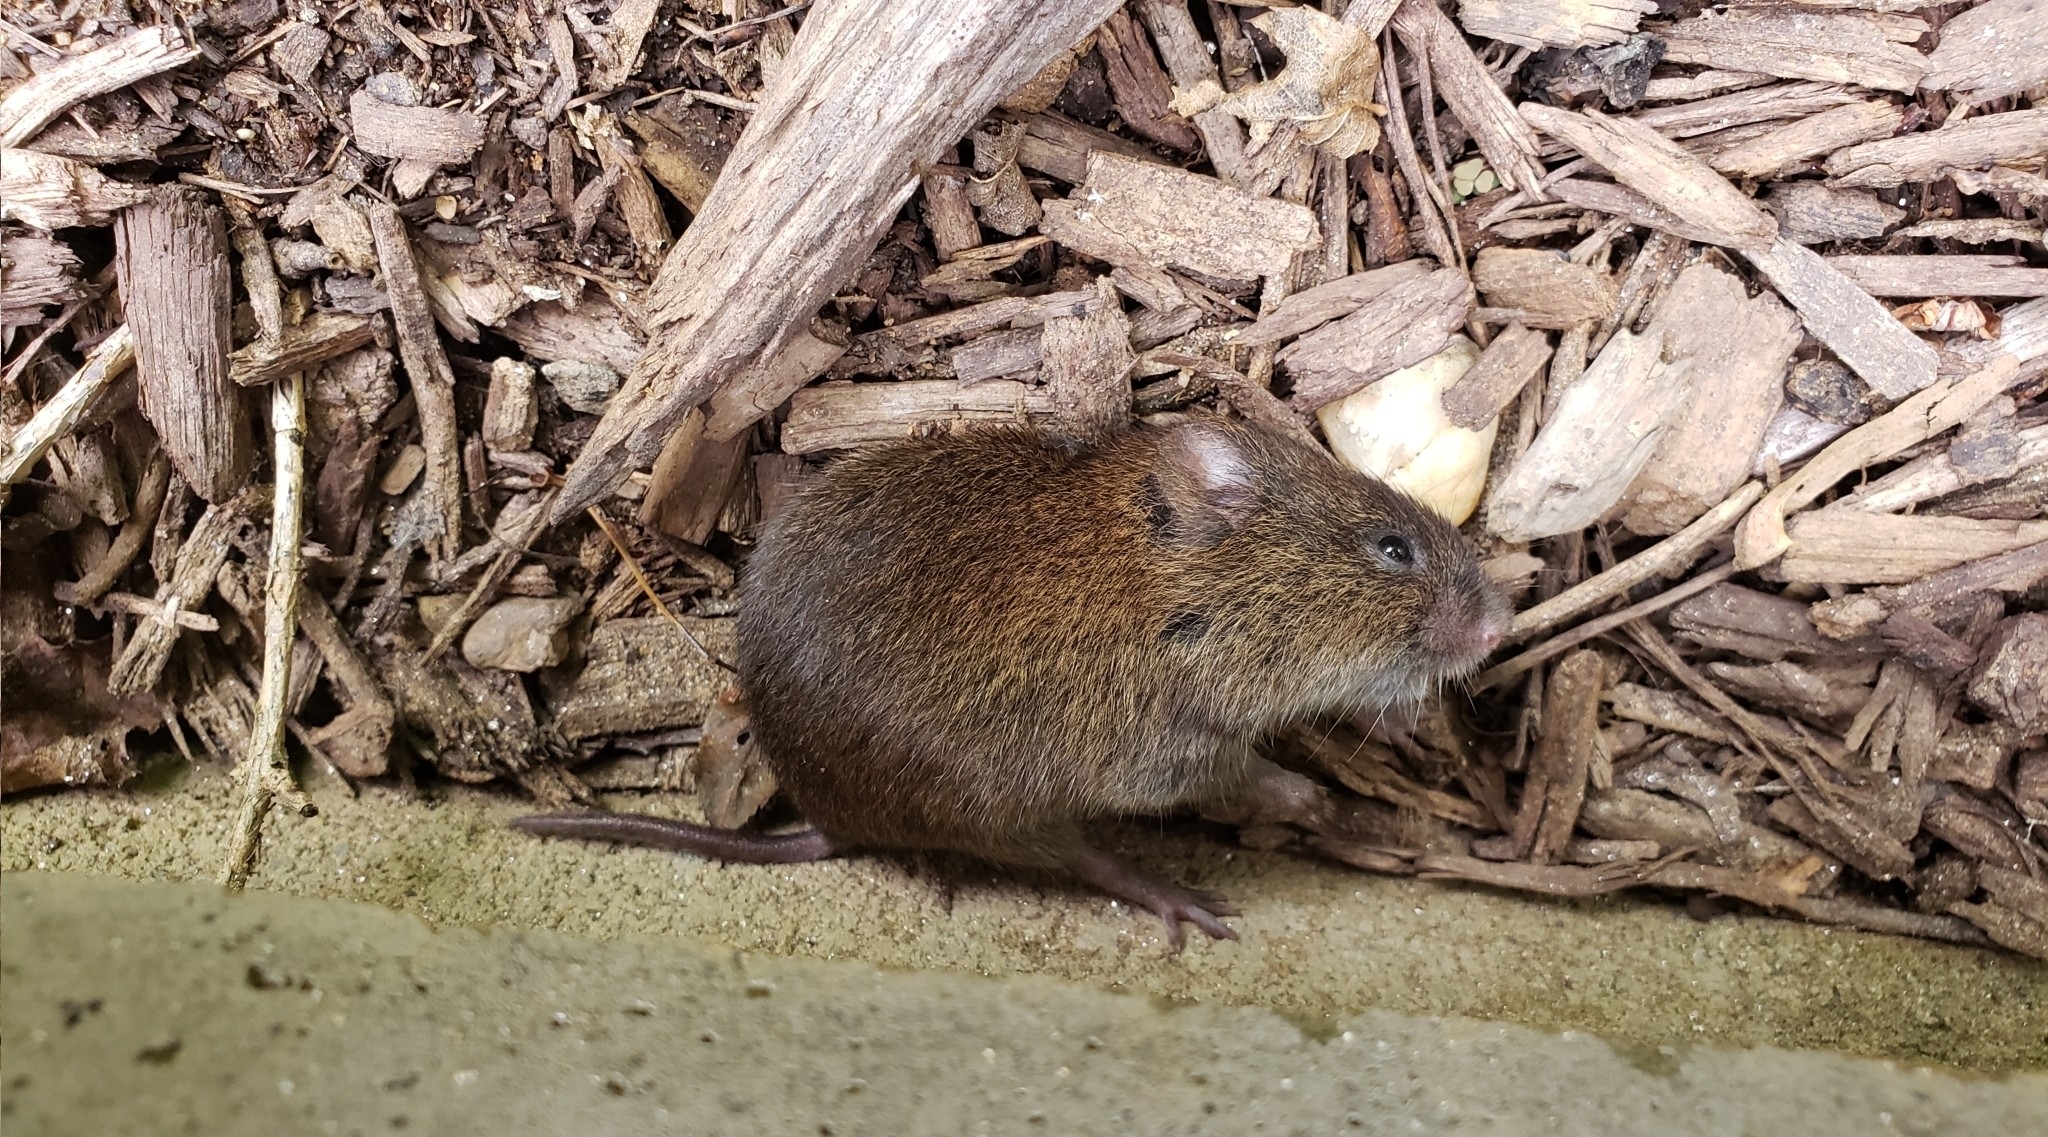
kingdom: Animalia
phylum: Chordata
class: Mammalia
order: Rodentia
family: Cricetidae
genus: Microtus
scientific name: Microtus pennsylvanicus
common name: Meadow vole
